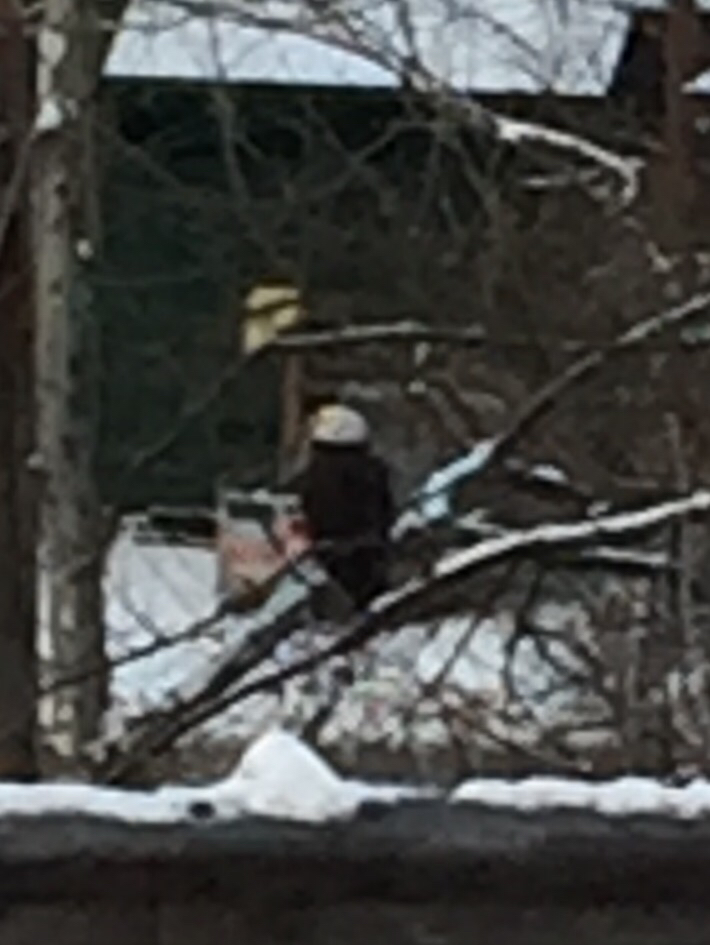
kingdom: Animalia
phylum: Chordata
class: Aves
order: Accipitriformes
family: Accipitridae
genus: Haliaeetus
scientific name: Haliaeetus leucocephalus
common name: Bald eagle
